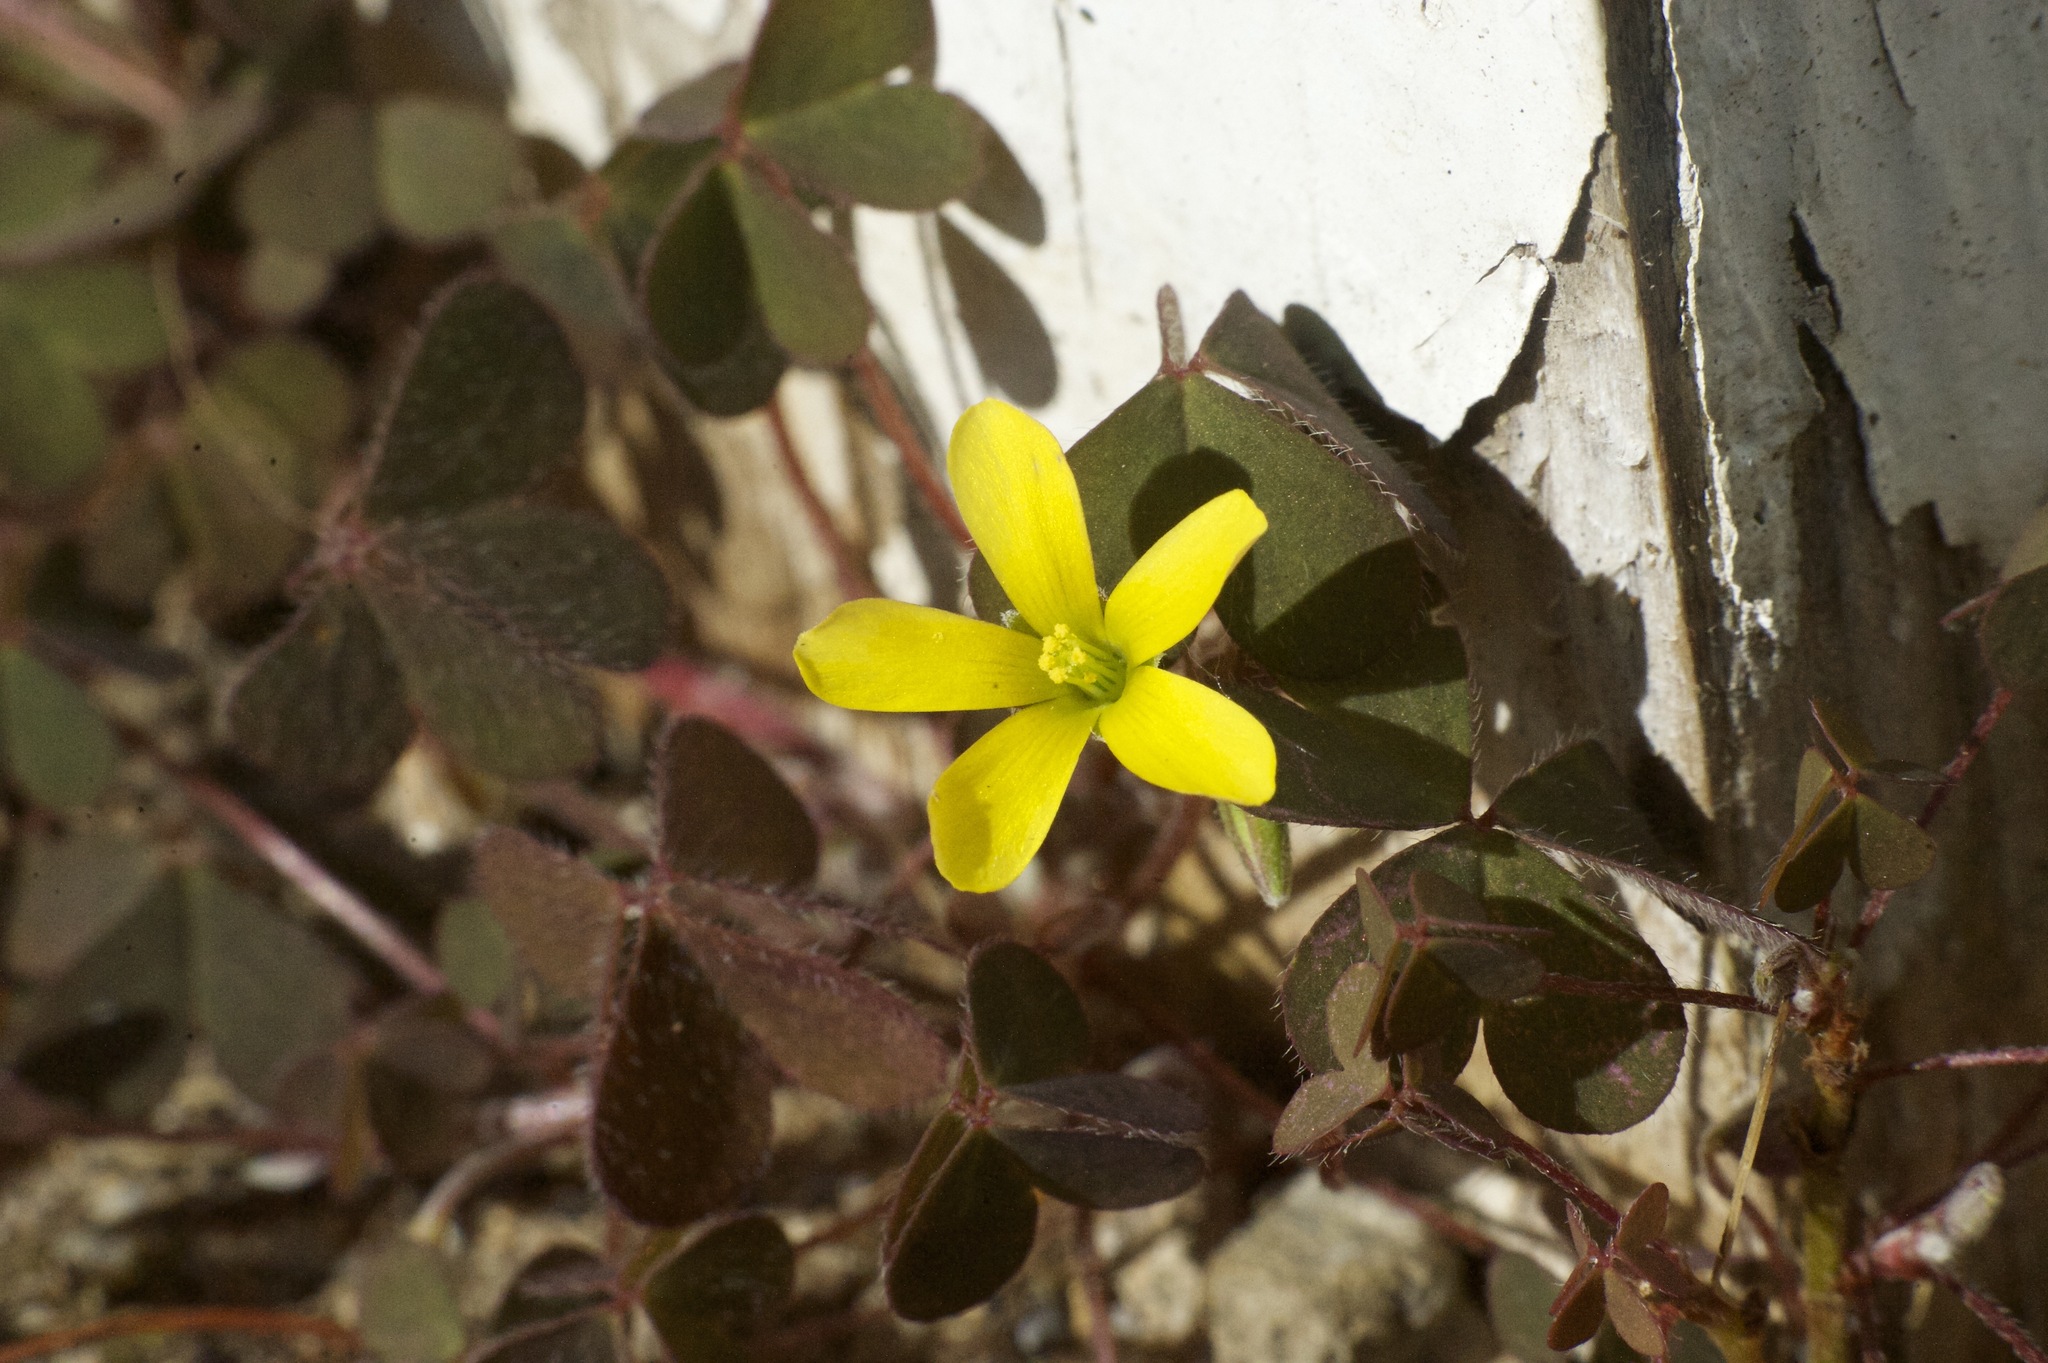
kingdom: Plantae
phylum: Tracheophyta
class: Magnoliopsida
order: Oxalidales
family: Oxalidaceae
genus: Oxalis
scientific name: Oxalis corniculata
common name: Procumbent yellow-sorrel
